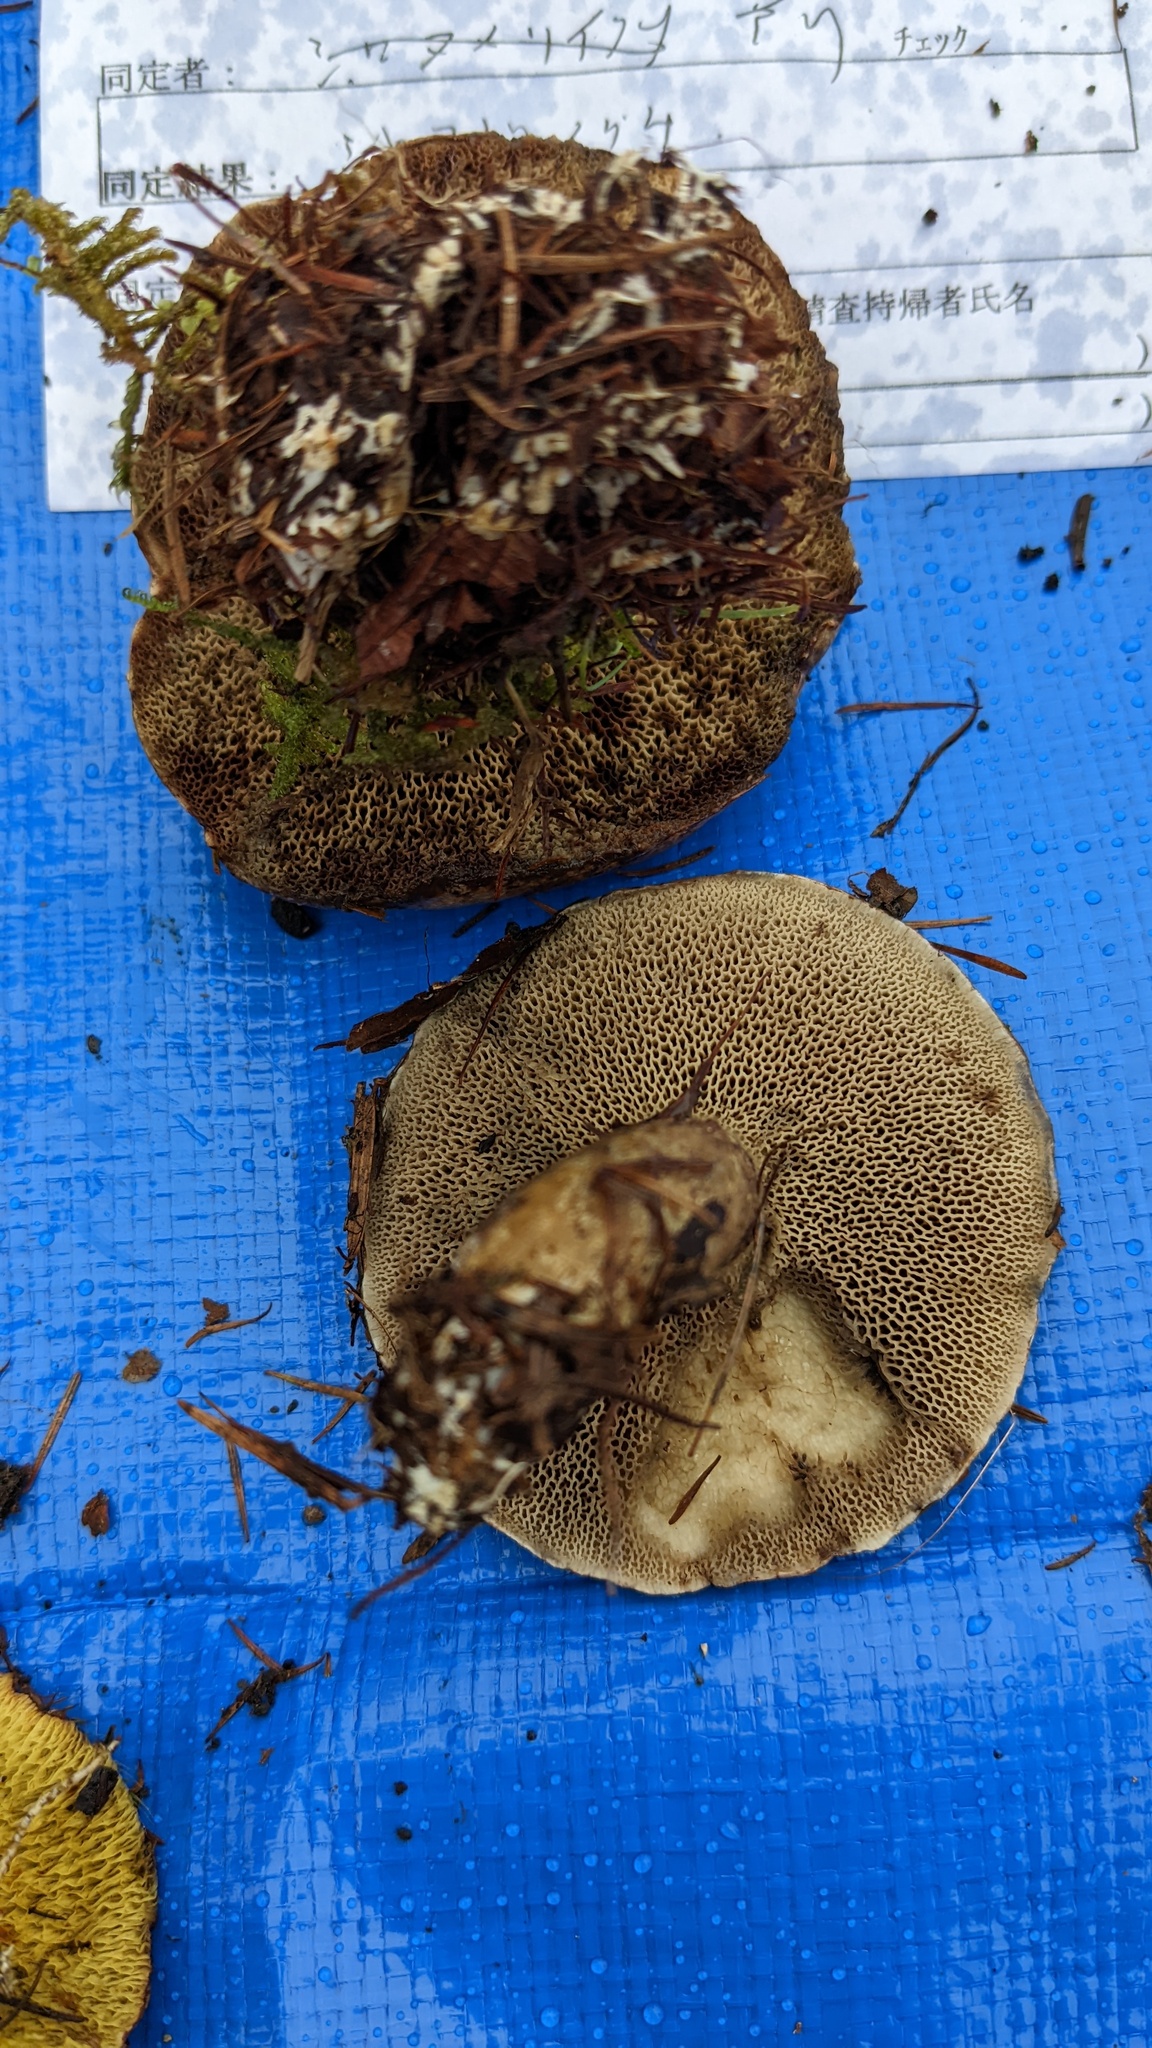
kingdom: Fungi
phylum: Basidiomycota
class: Agaricomycetes
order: Boletales
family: Suillaceae
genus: Suillus
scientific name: Suillus viscidus
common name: Sticky bolete
